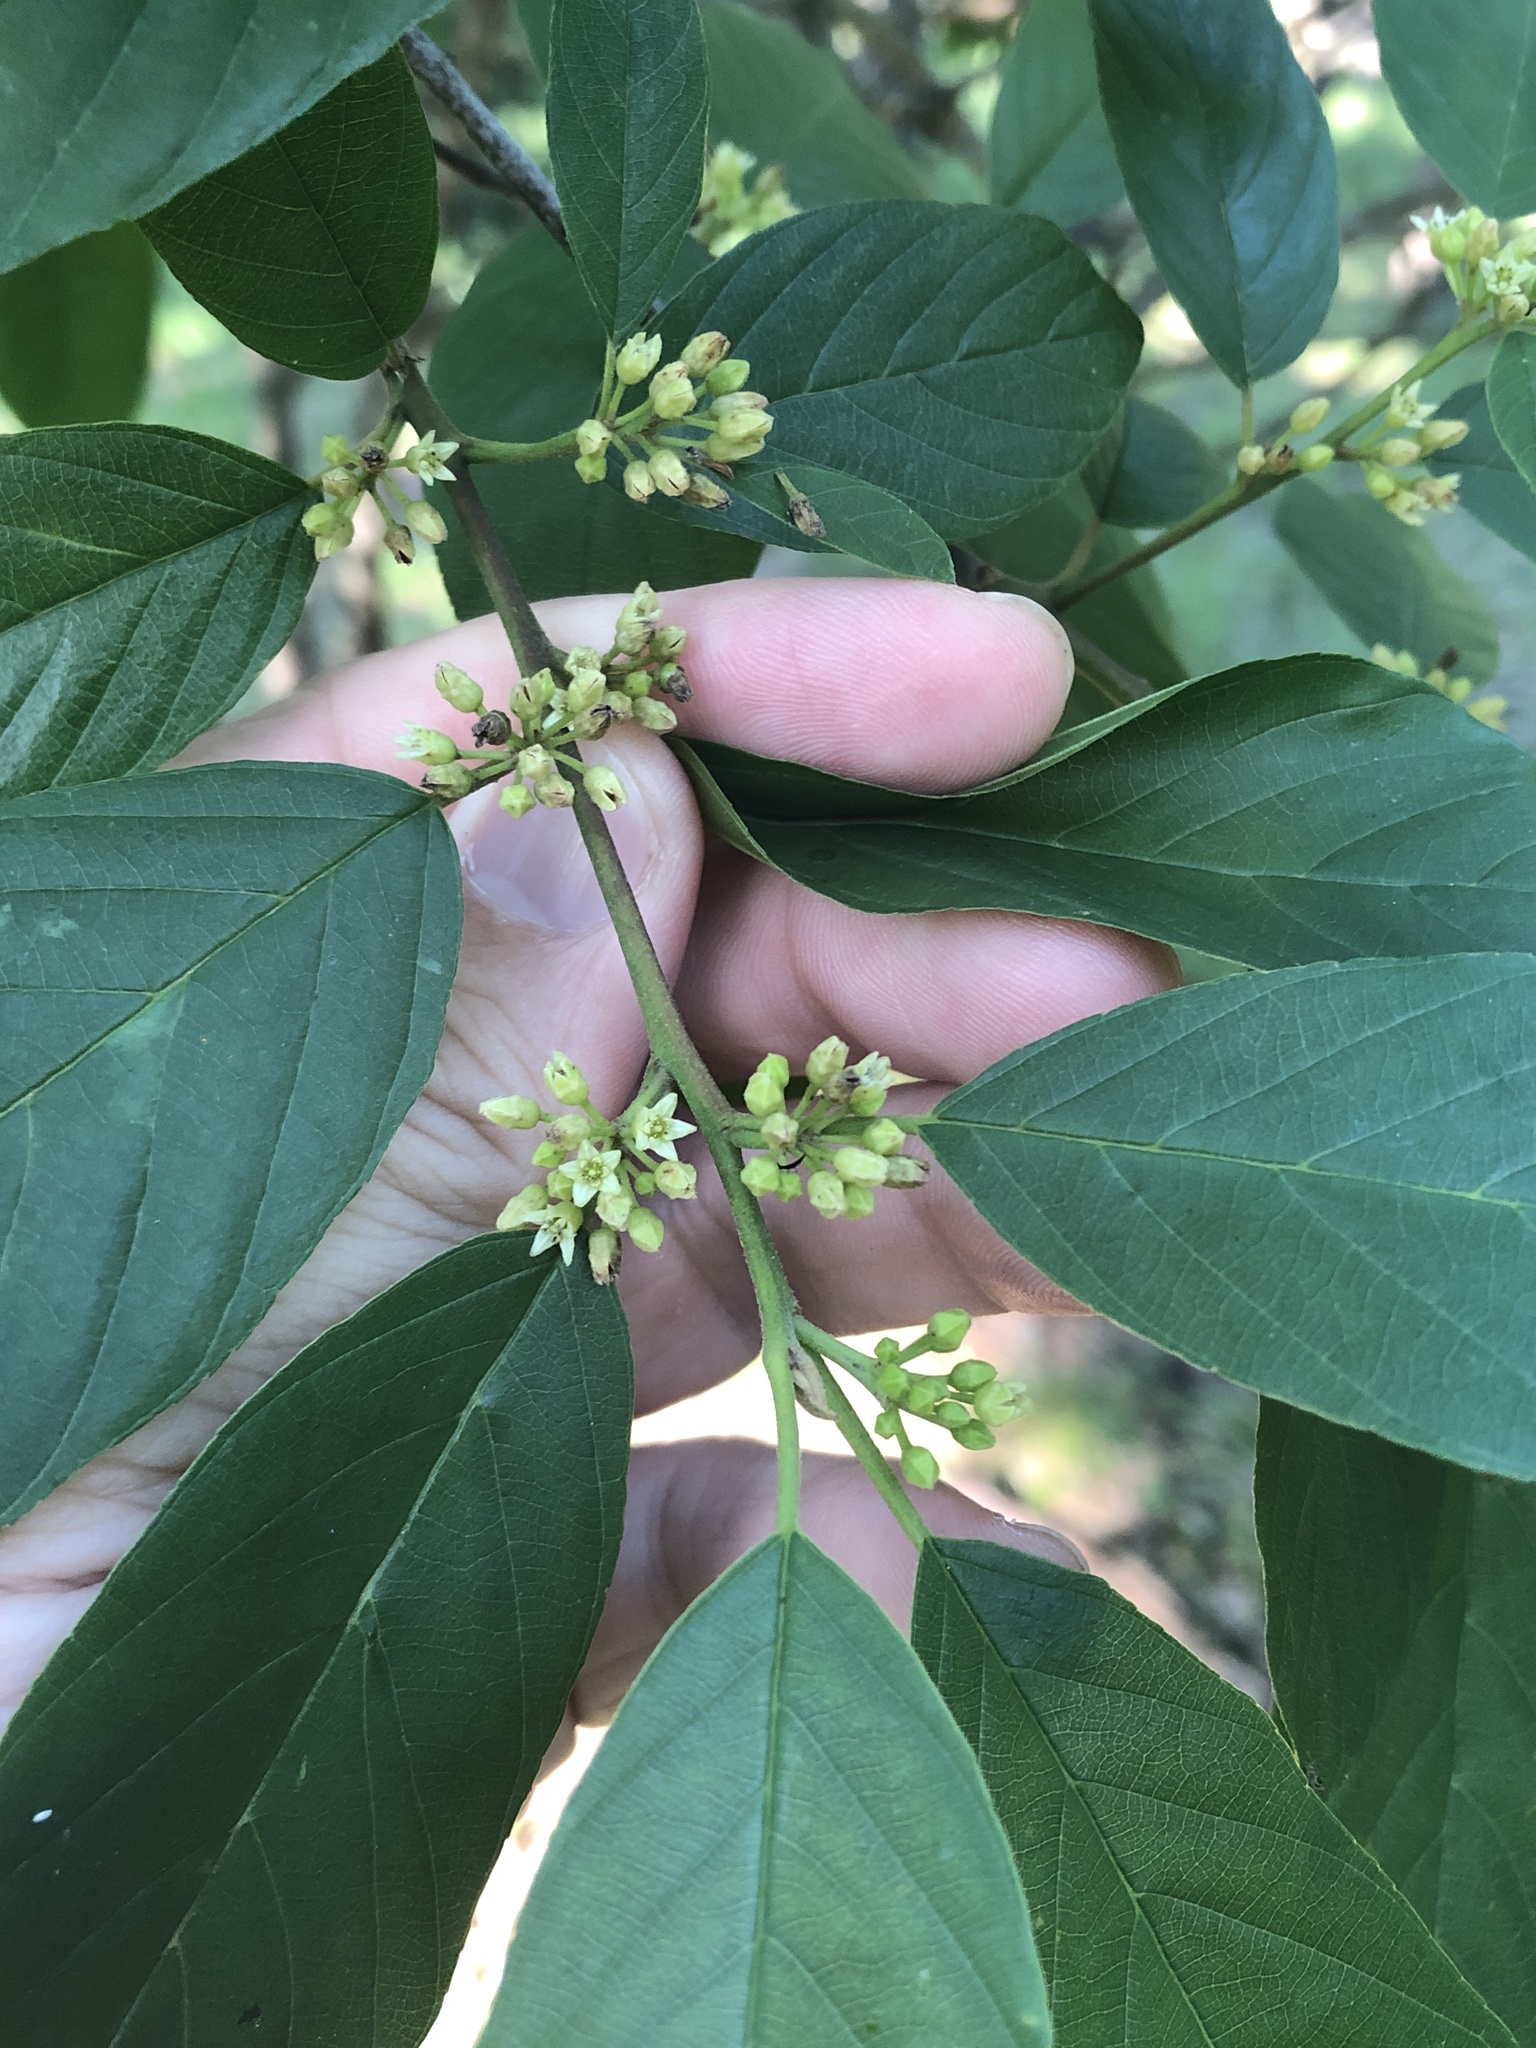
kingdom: Plantae
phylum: Tracheophyta
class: Magnoliopsida
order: Rosales
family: Rhamnaceae
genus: Frangula
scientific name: Frangula caroliniana
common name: Carolina buckthorn
